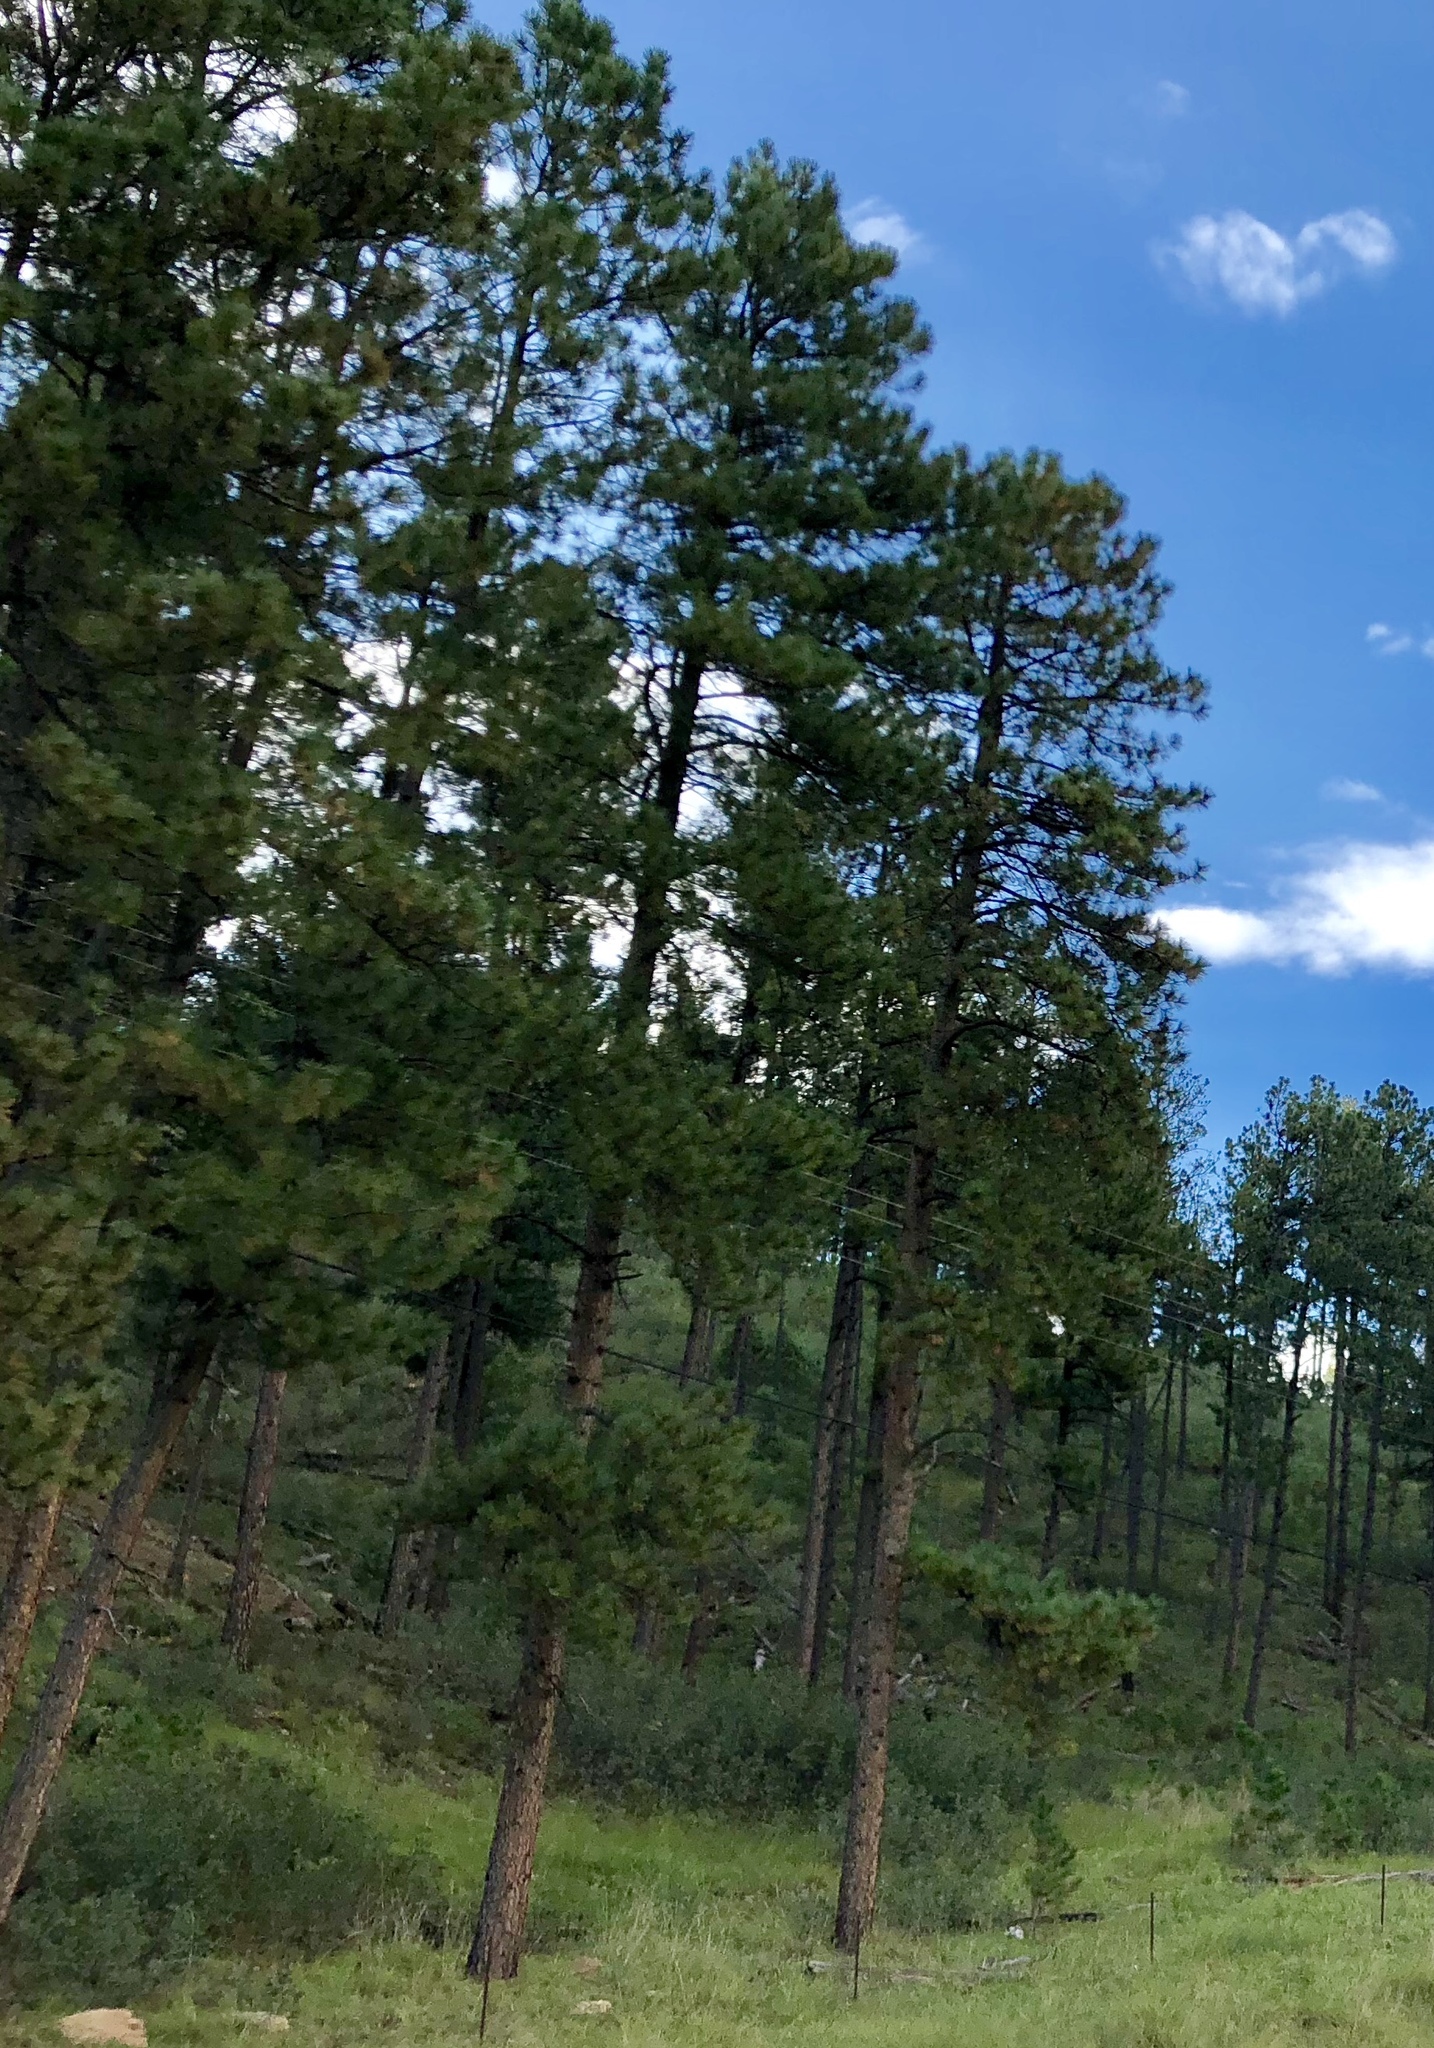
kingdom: Plantae
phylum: Tracheophyta
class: Pinopsida
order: Pinales
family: Pinaceae
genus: Pinus
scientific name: Pinus ponderosa
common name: Western yellow-pine
